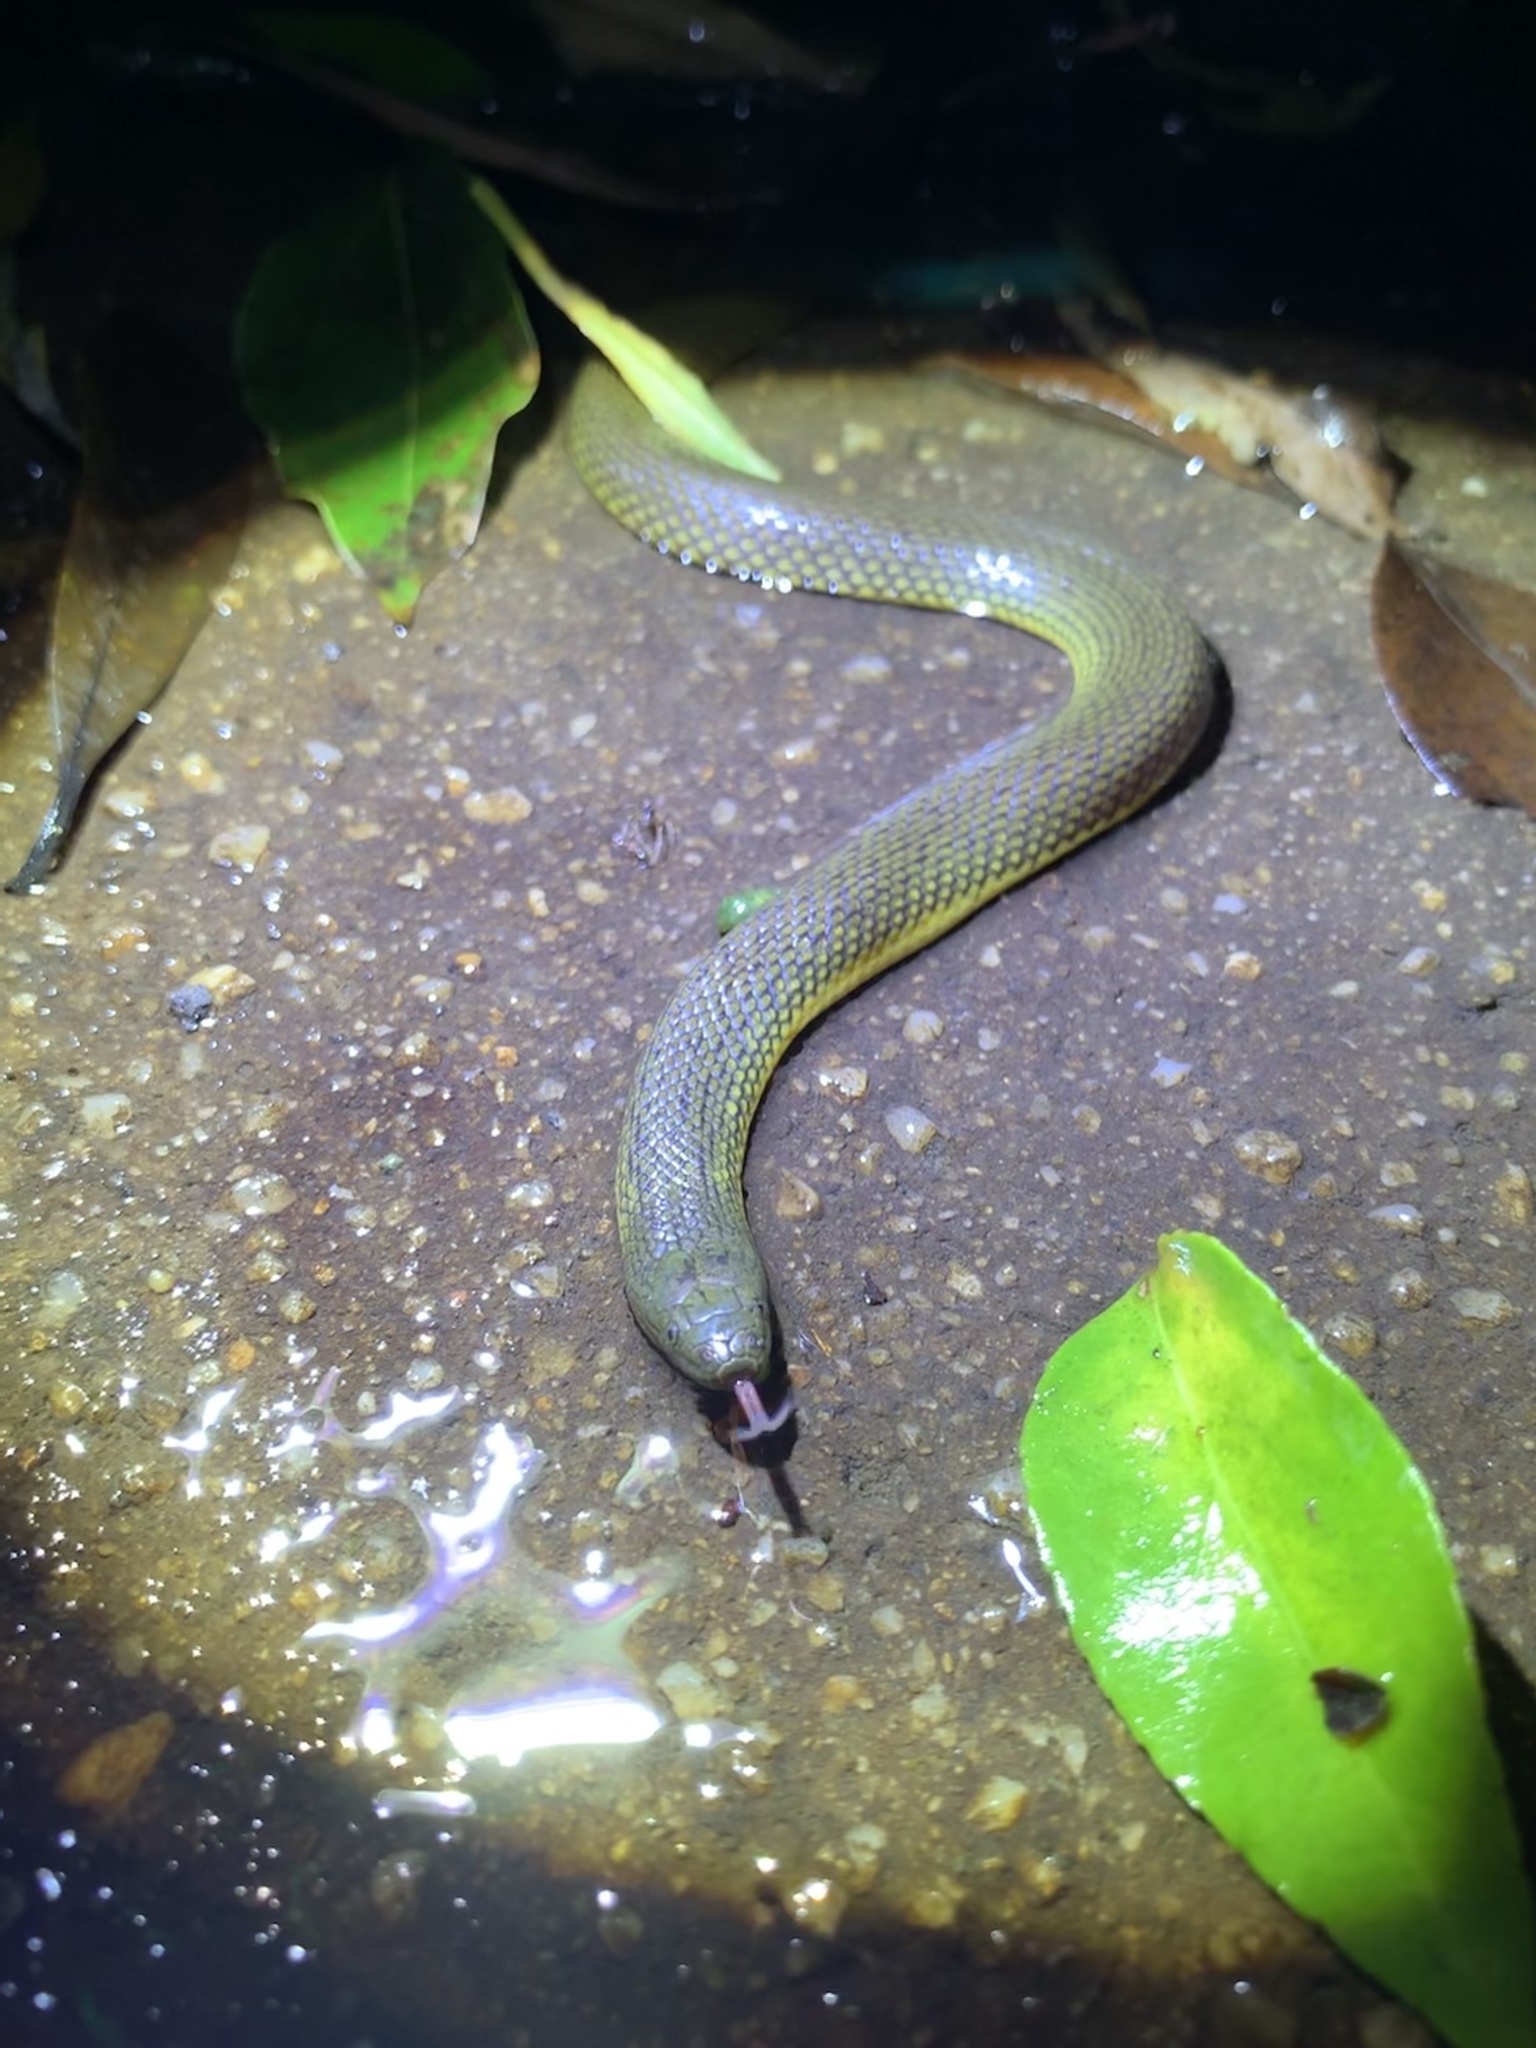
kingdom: Animalia
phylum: Chordata
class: Squamata
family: Colubridae
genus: Opisthotropis
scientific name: Opisthotropis andersonii
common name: Anderson's mountain keelback
